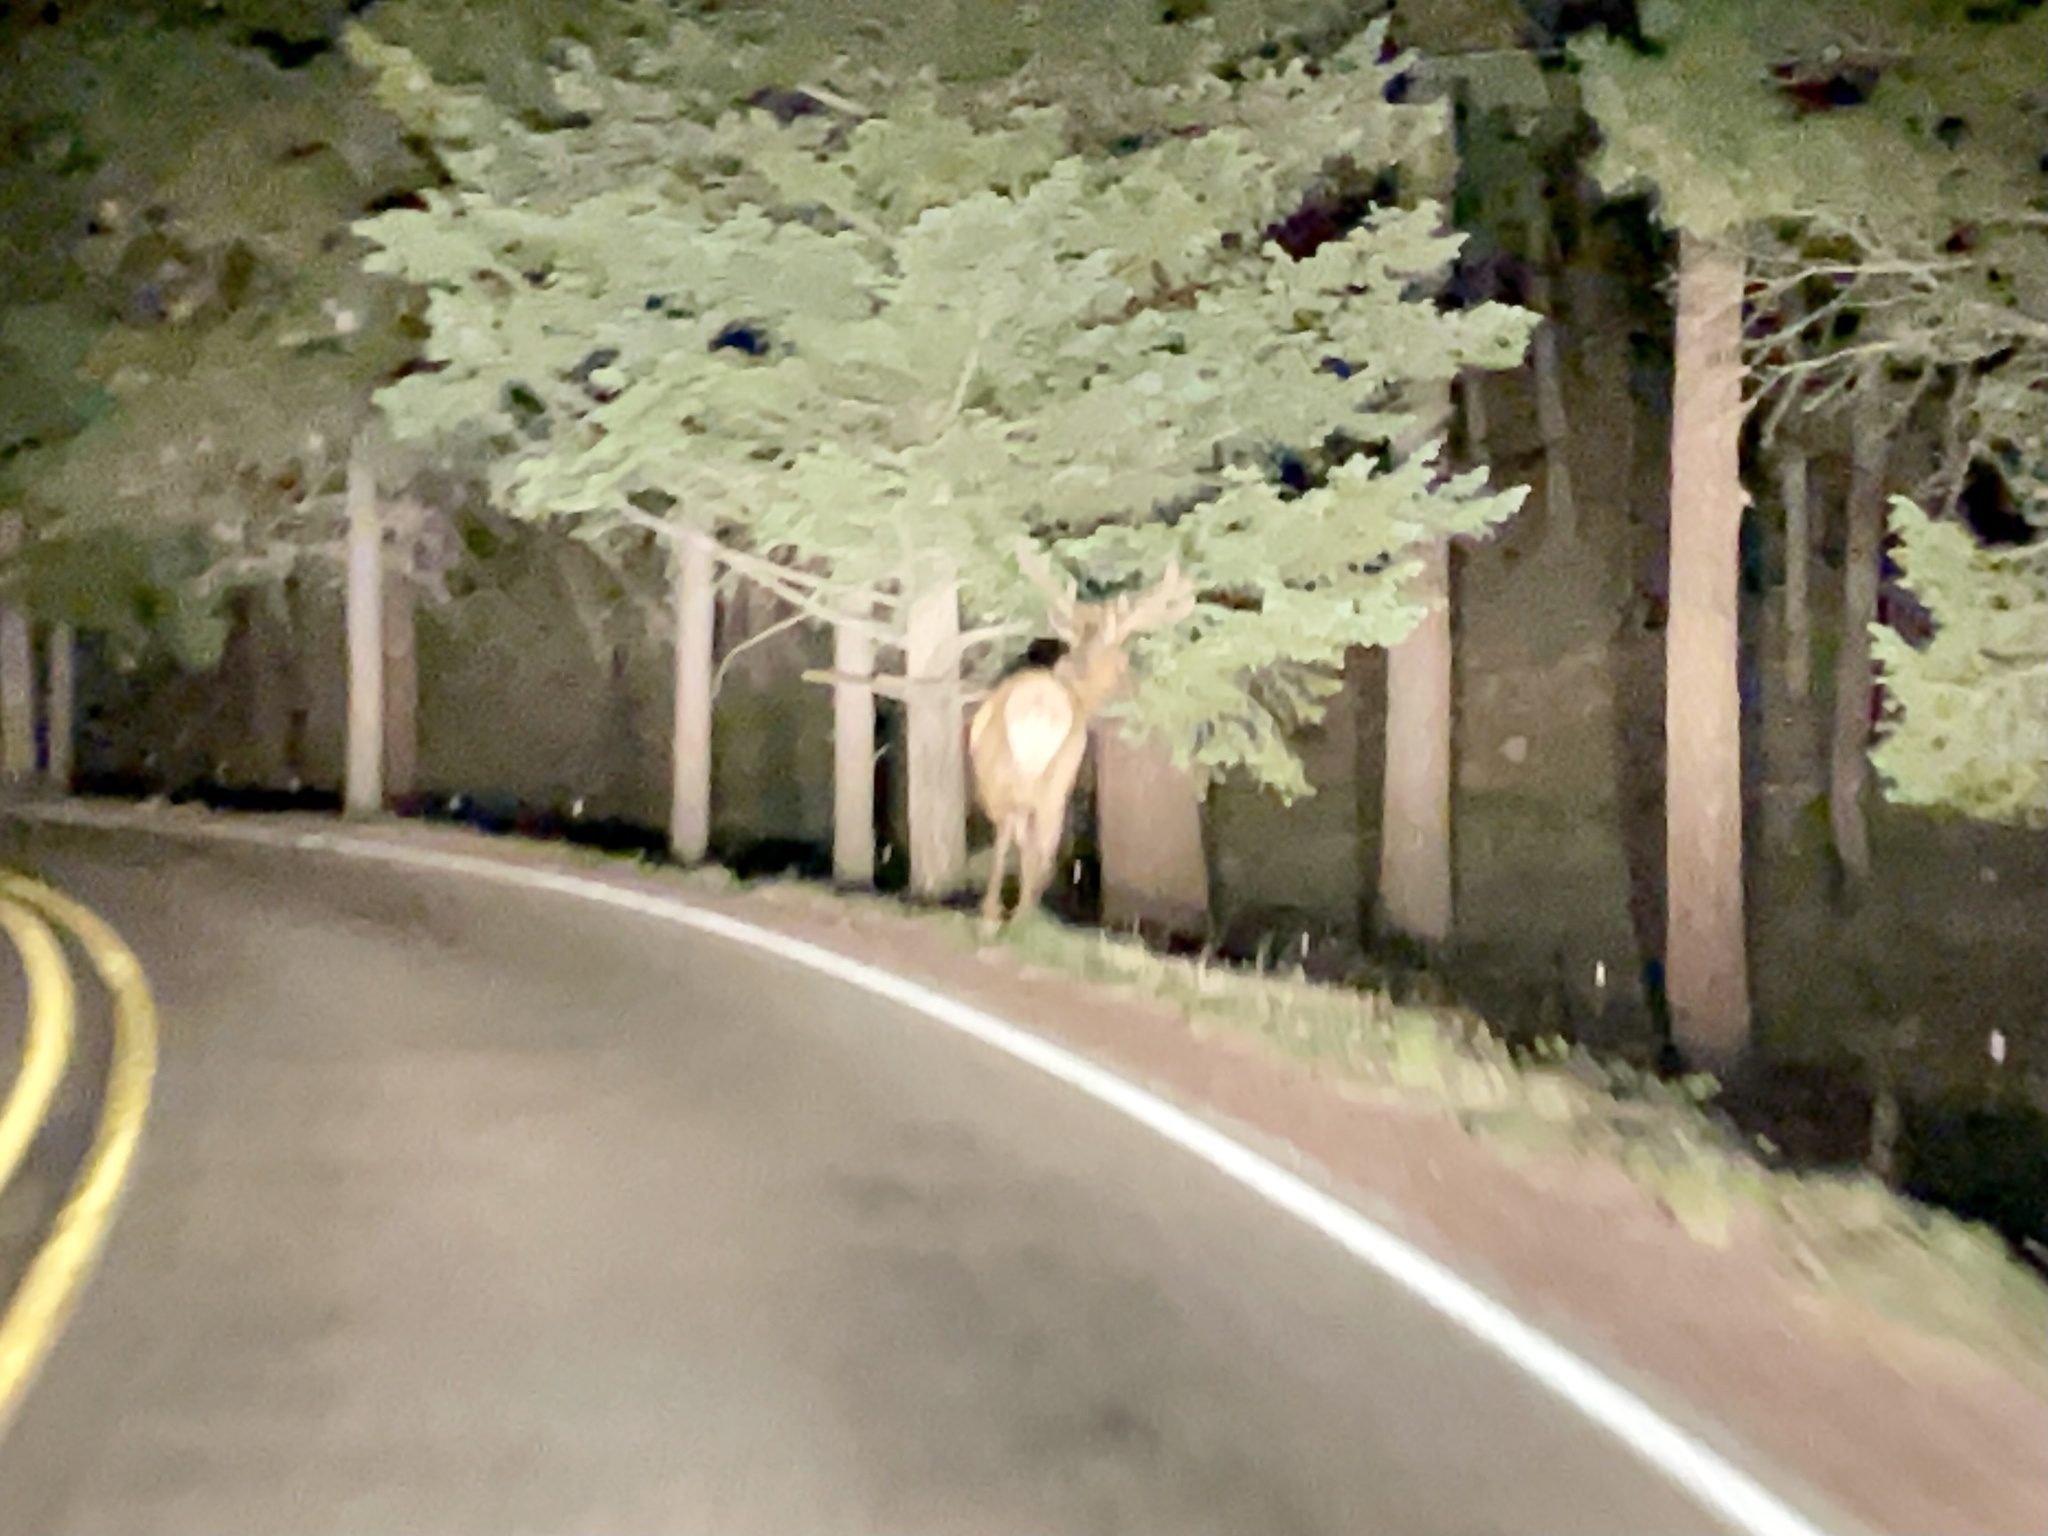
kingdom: Animalia
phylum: Chordata
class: Mammalia
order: Artiodactyla
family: Cervidae
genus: Cervus
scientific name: Cervus elaphus
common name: Red deer
